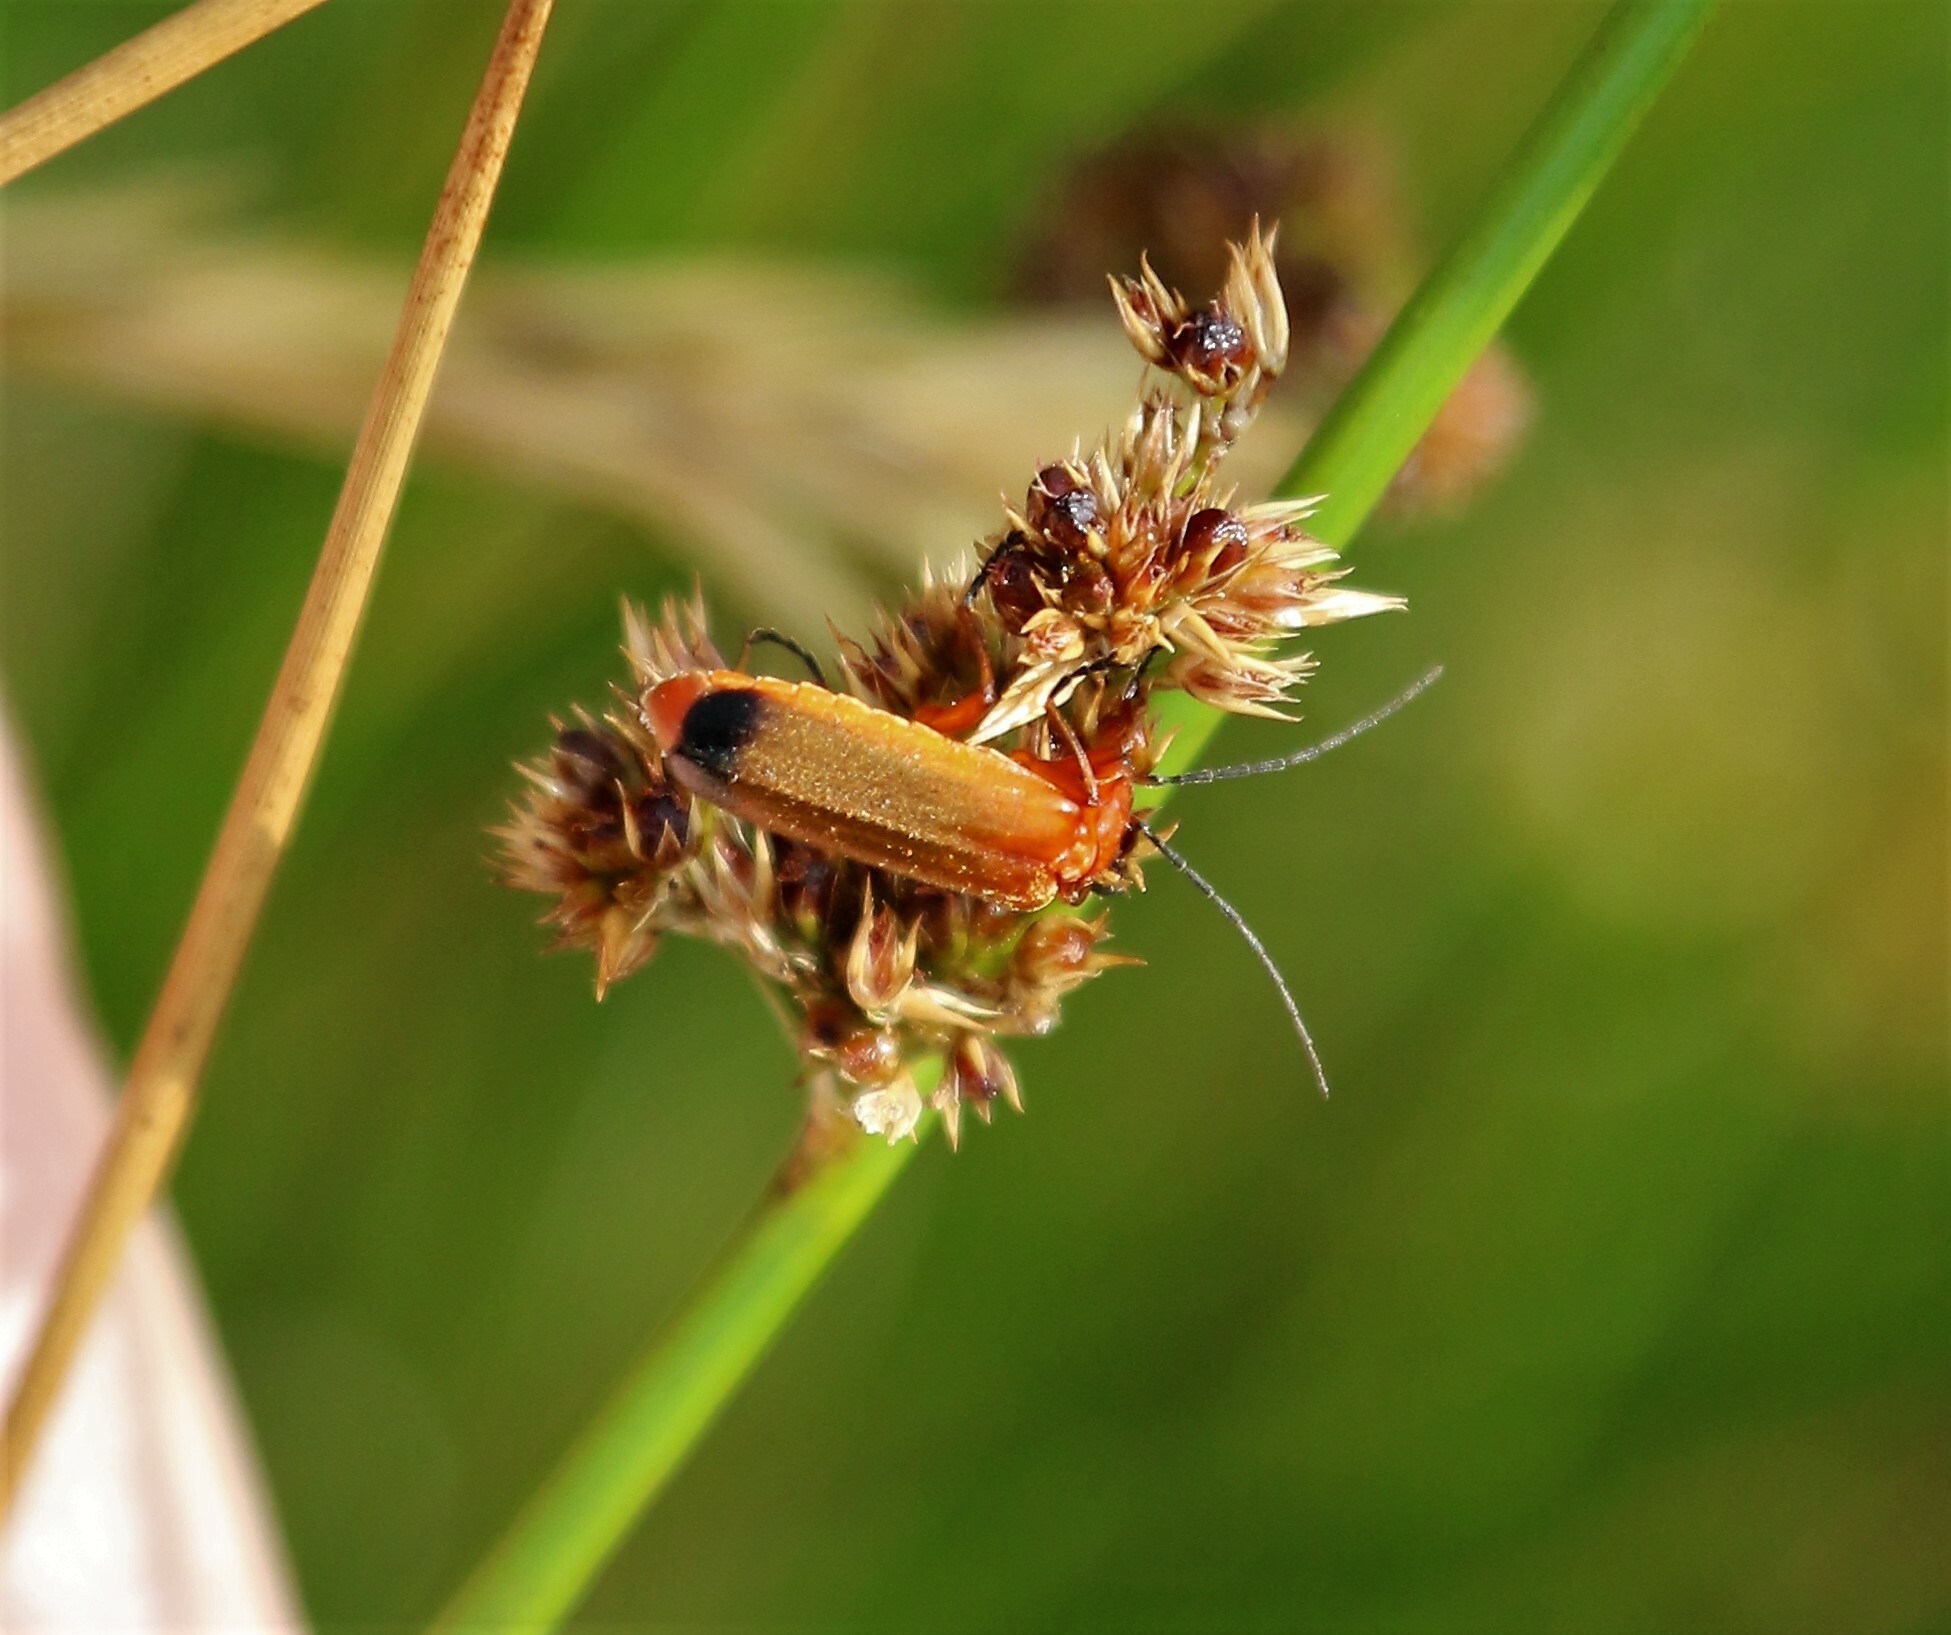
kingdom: Animalia
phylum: Arthropoda
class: Insecta
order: Coleoptera
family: Cantharidae
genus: Rhagonycha
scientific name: Rhagonycha fulva
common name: Common red soldier beetle
